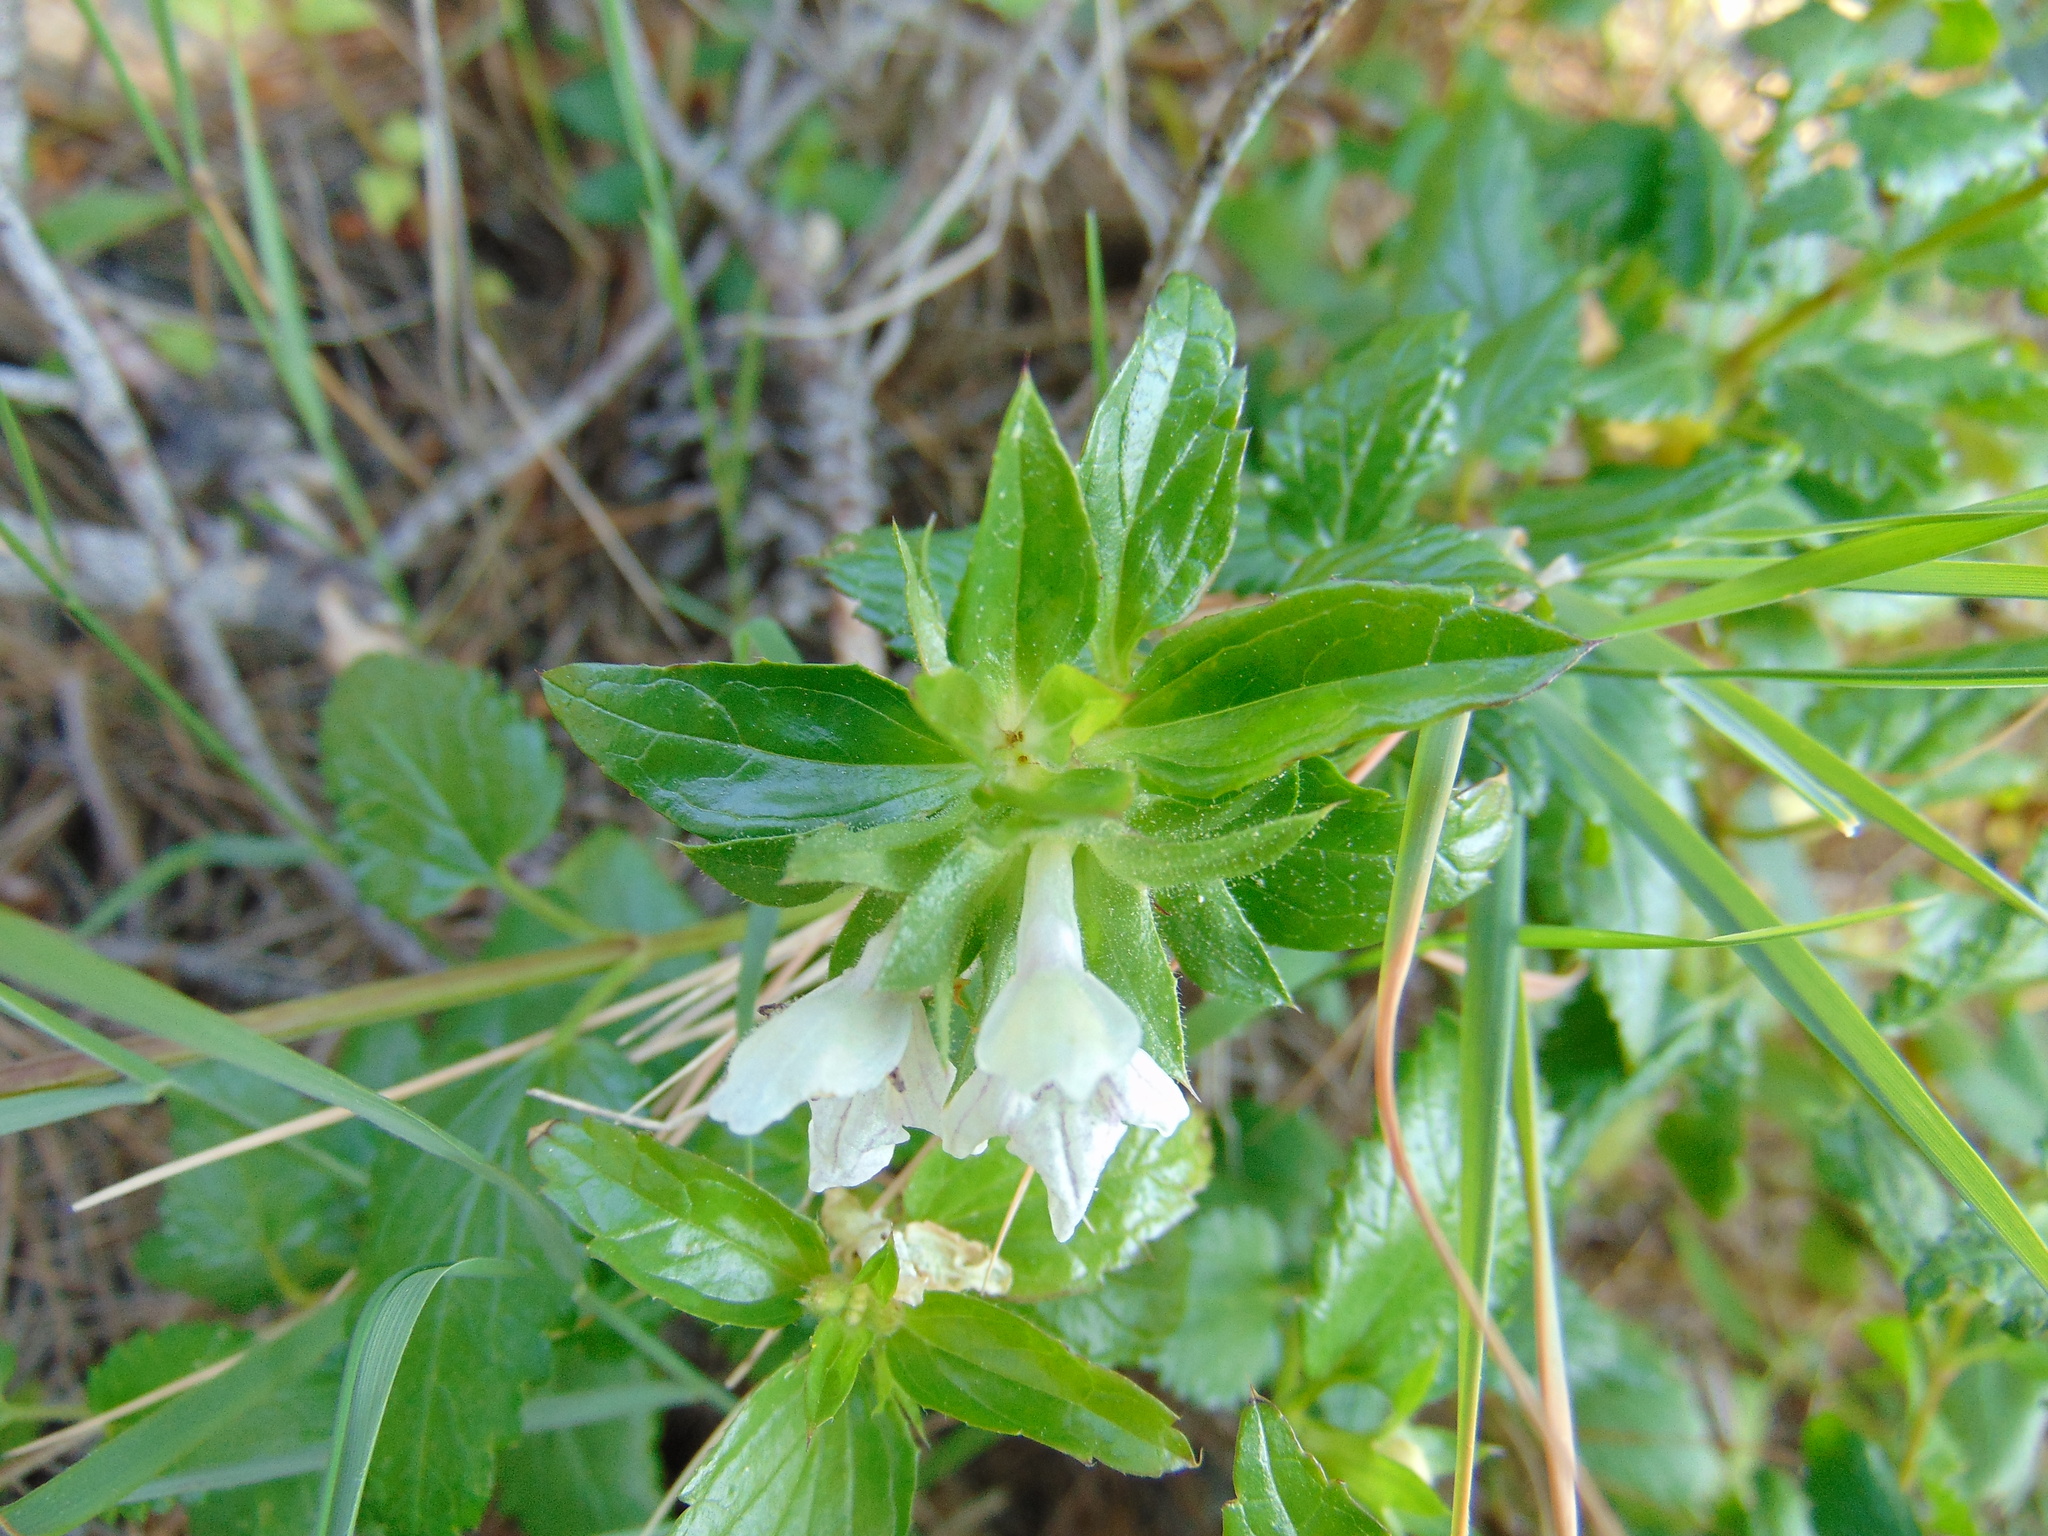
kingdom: Plantae
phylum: Tracheophyta
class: Magnoliopsida
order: Lamiales
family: Lamiaceae
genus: Prasium
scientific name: Prasium majus
